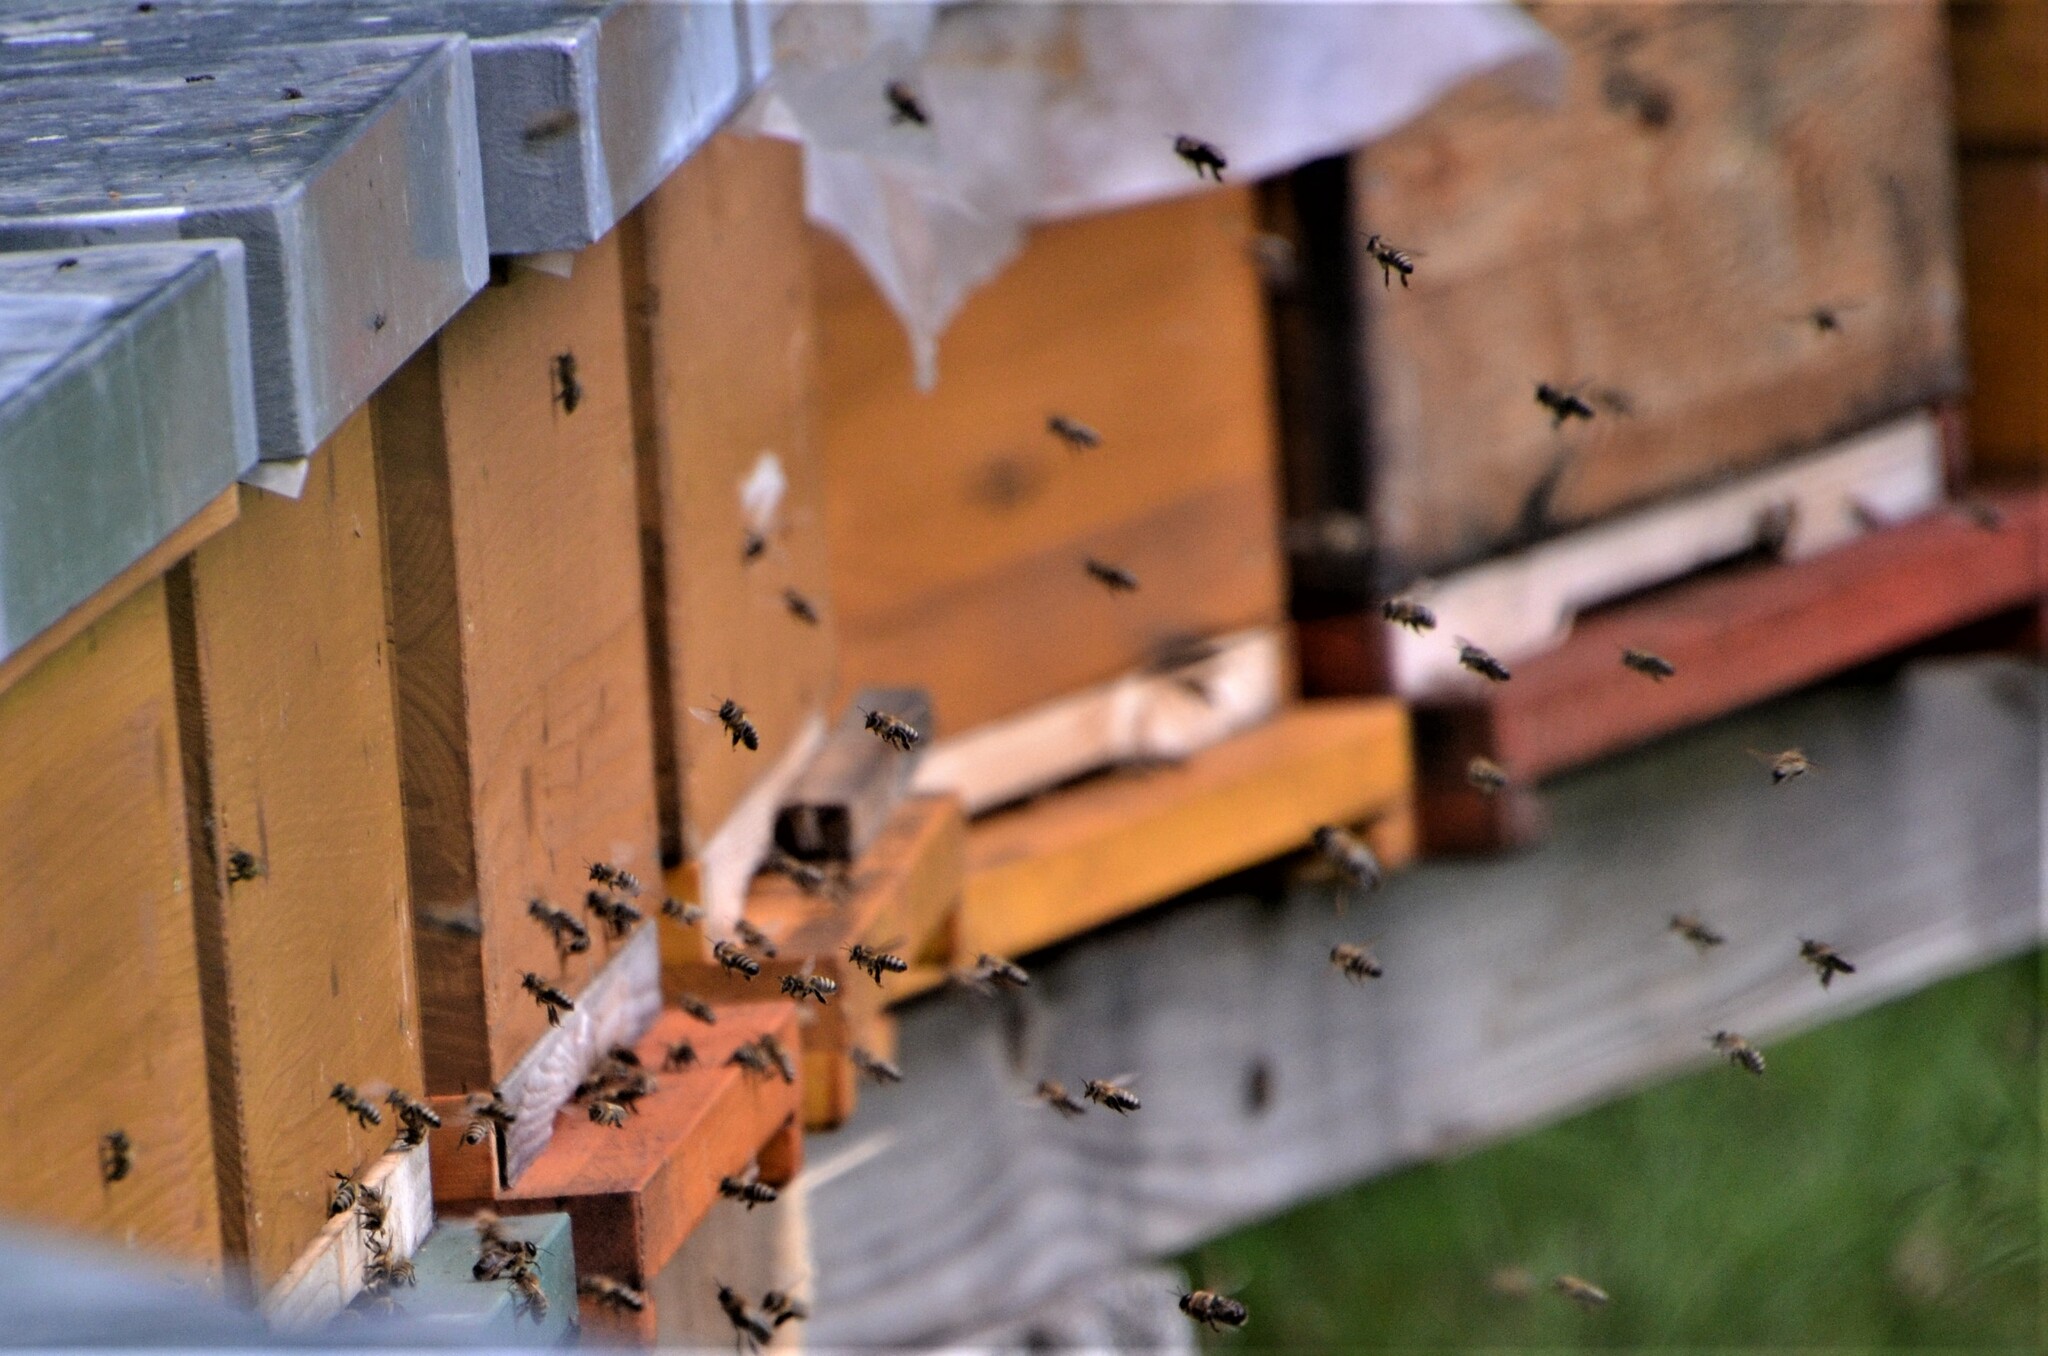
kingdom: Animalia
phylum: Arthropoda
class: Insecta
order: Hymenoptera
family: Apidae
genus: Apis
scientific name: Apis mellifera
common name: Honey bee
